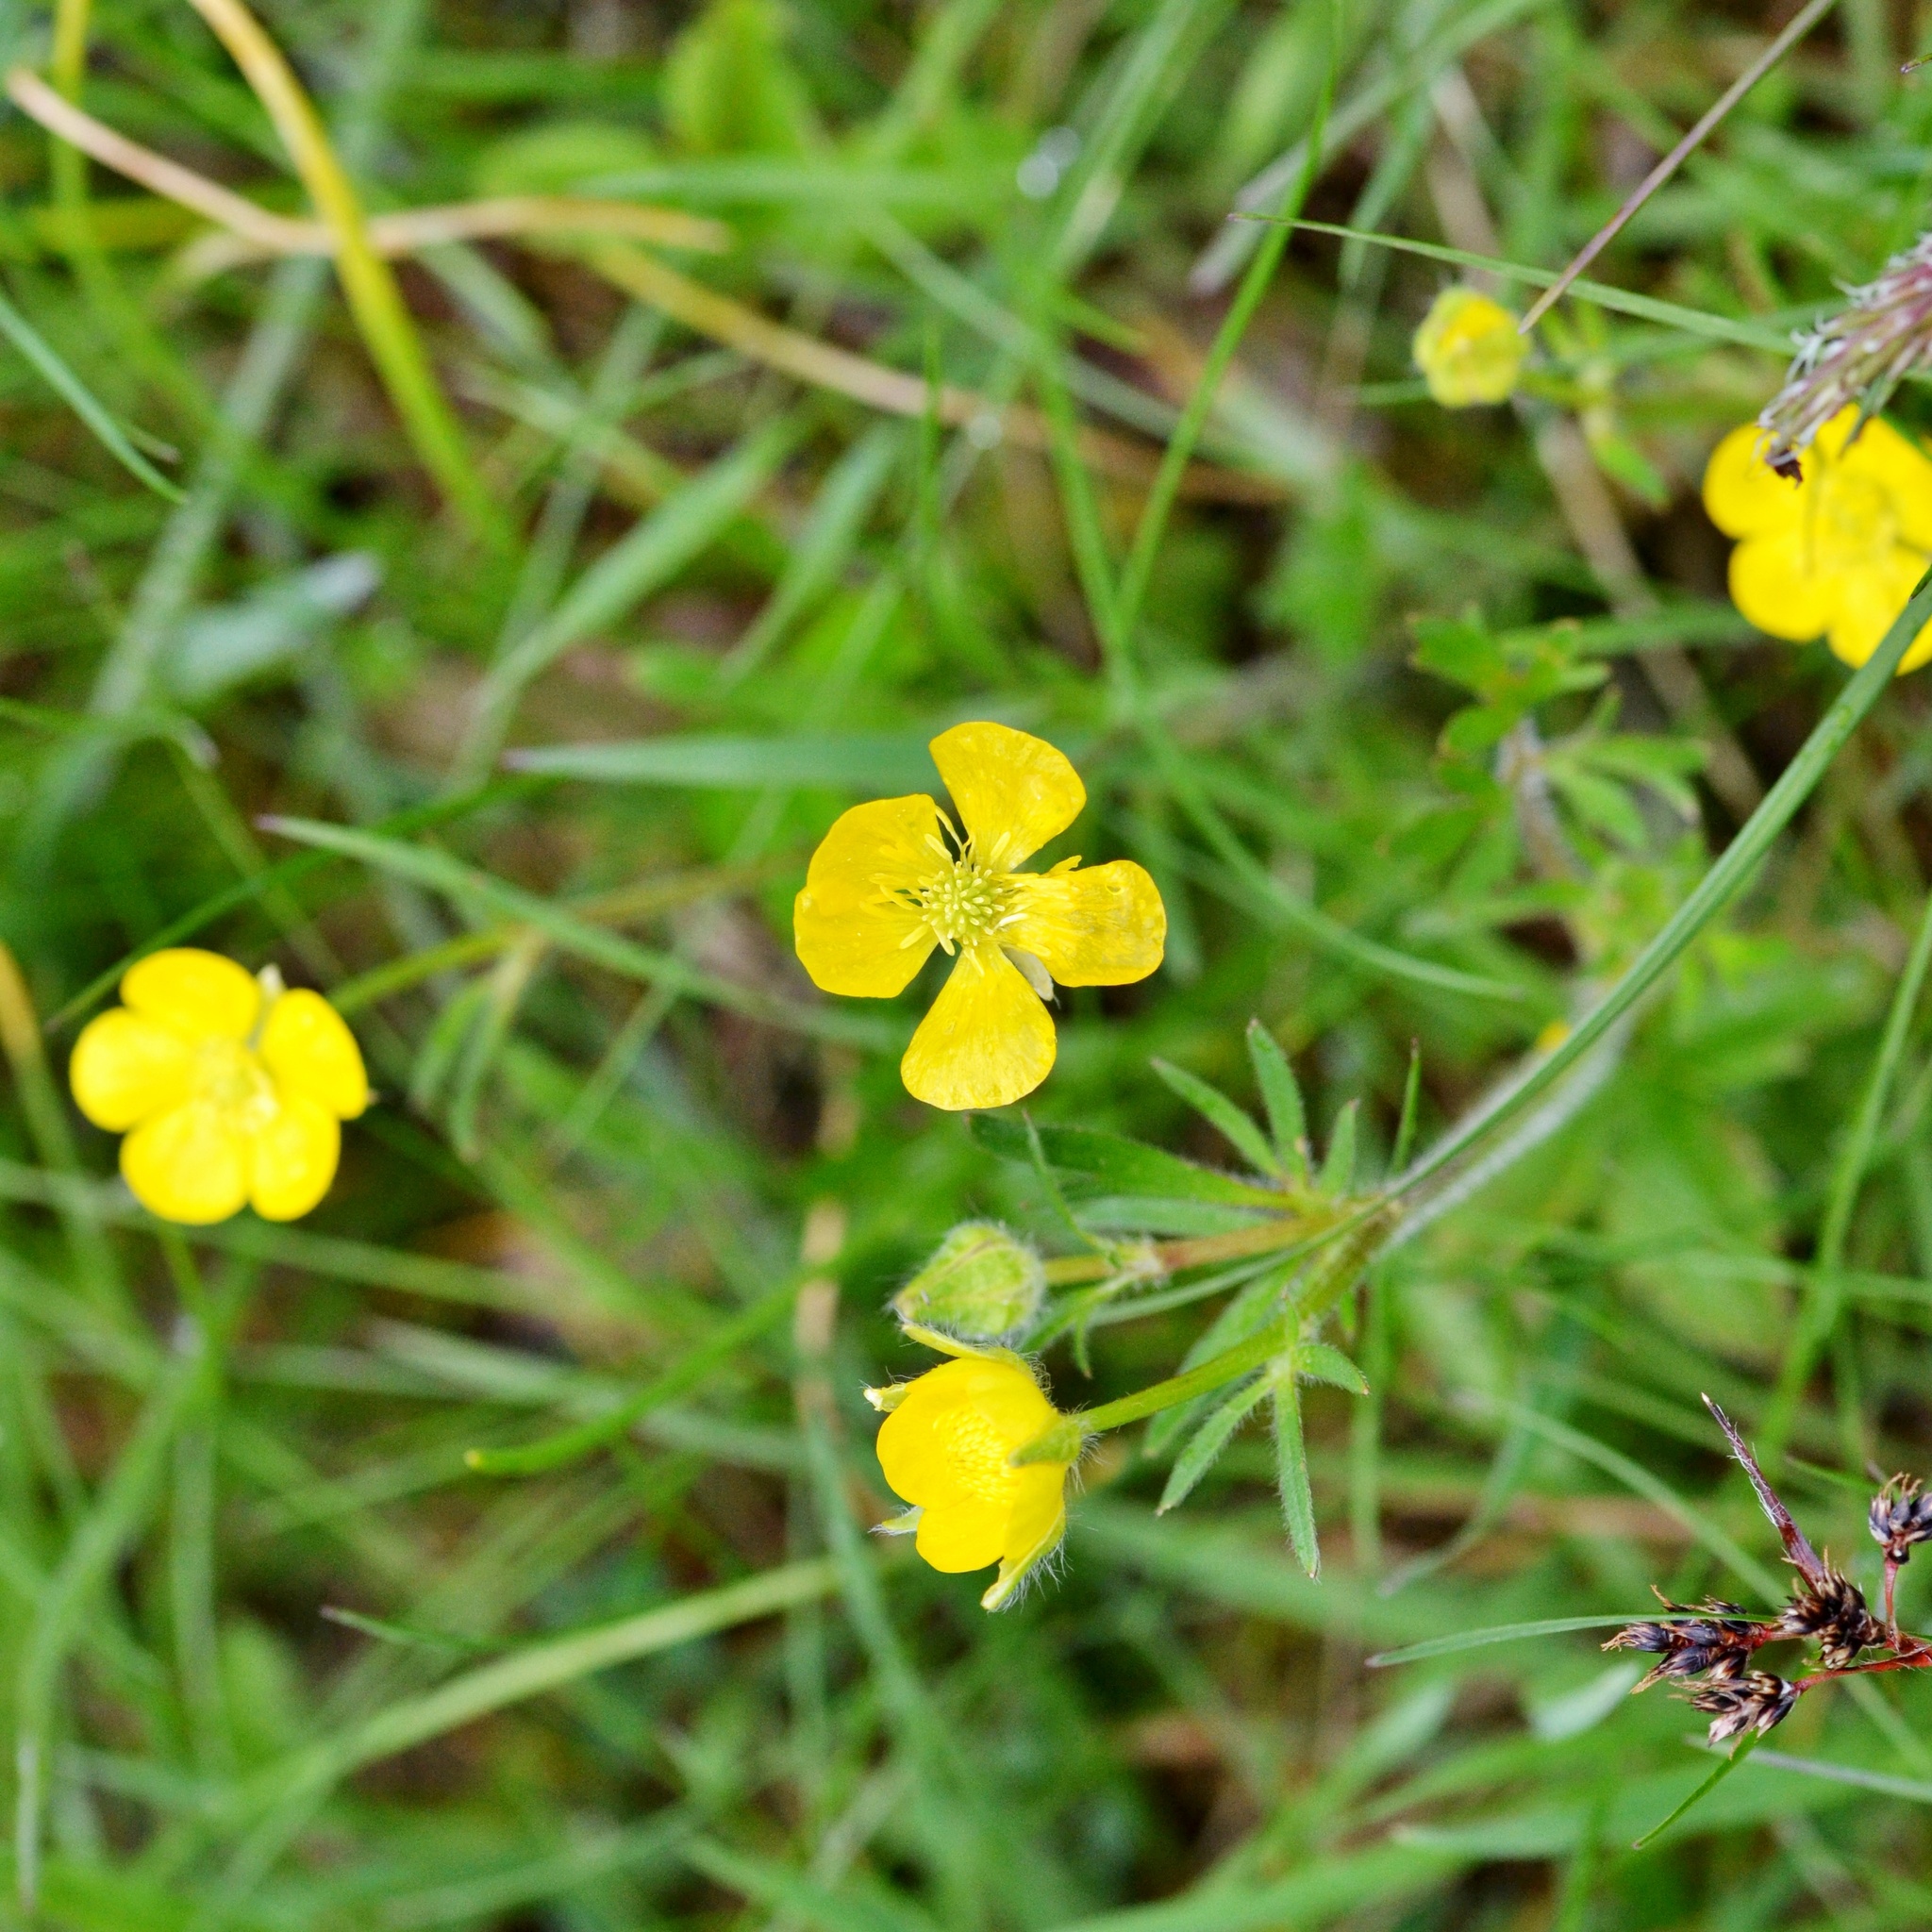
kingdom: Plantae
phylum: Tracheophyta
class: Magnoliopsida
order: Ranunculales
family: Ranunculaceae
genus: Ranunculus
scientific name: Ranunculus bulbosus
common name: Bulbous buttercup
